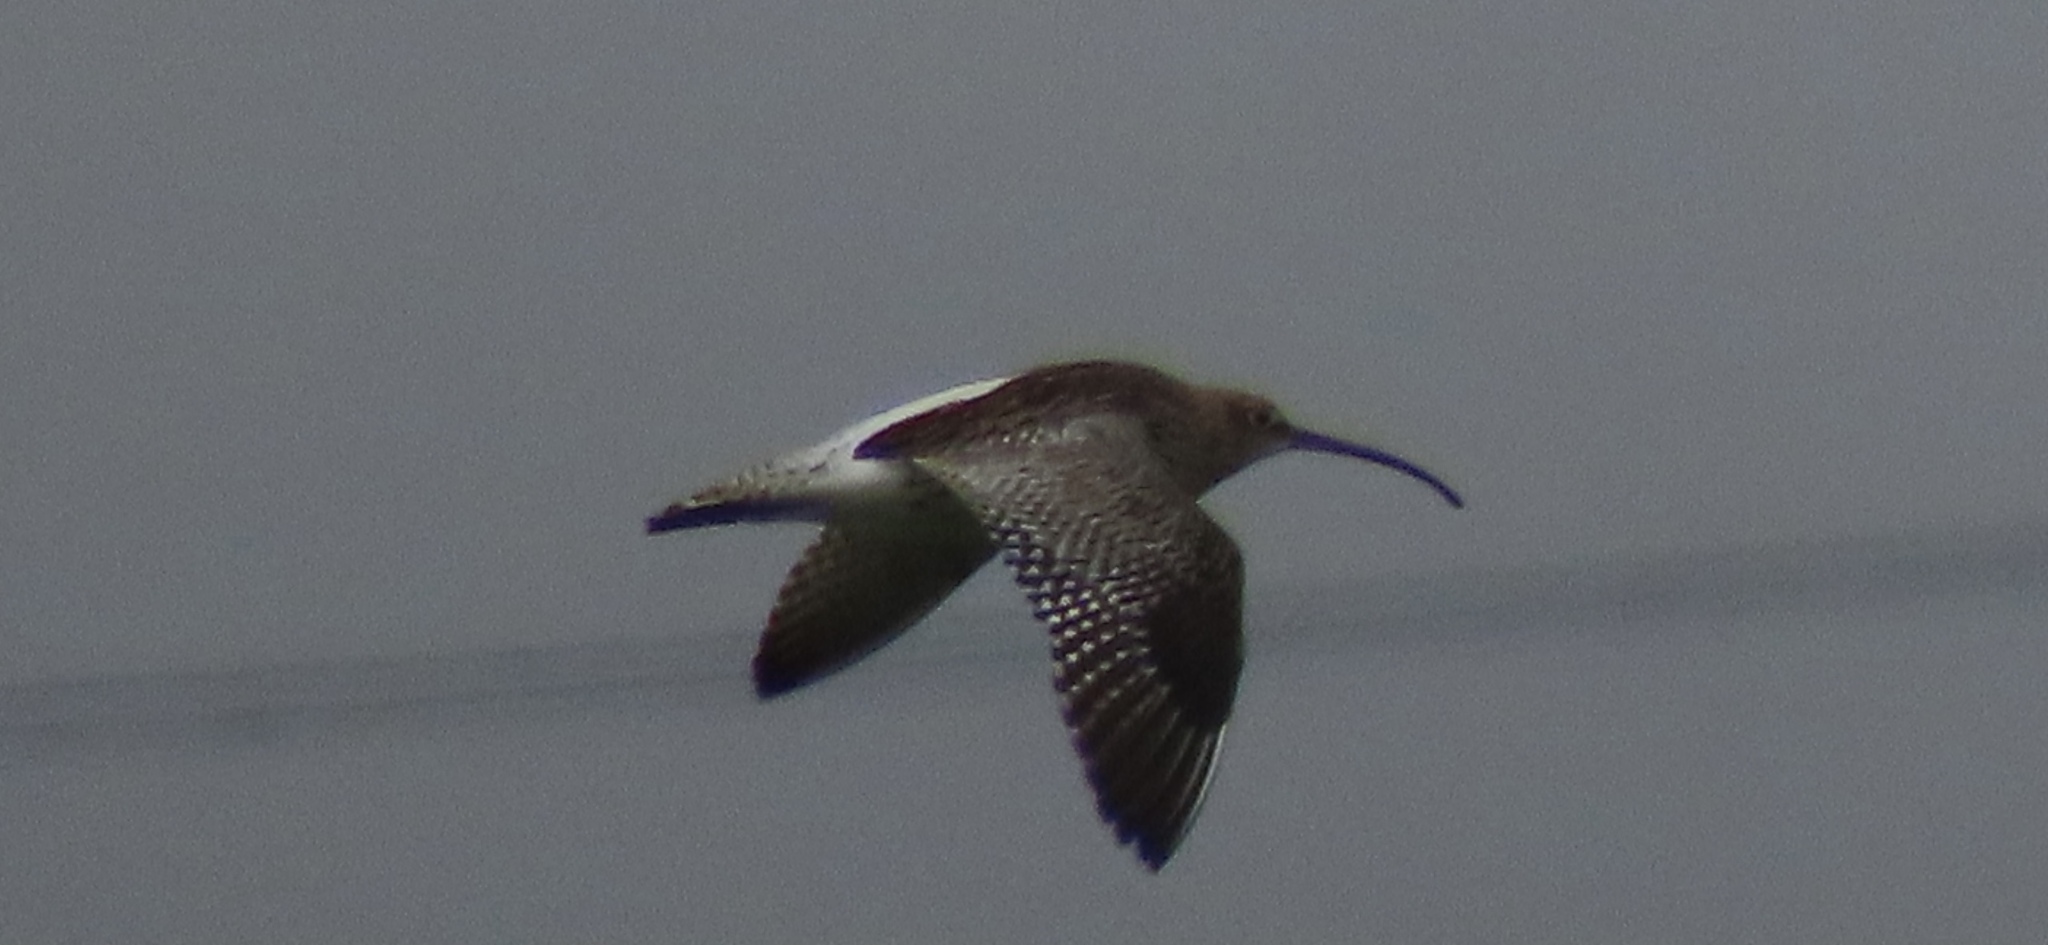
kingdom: Animalia
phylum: Chordata
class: Aves
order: Charadriiformes
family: Scolopacidae
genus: Numenius
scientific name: Numenius arquata
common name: Eurasian curlew
